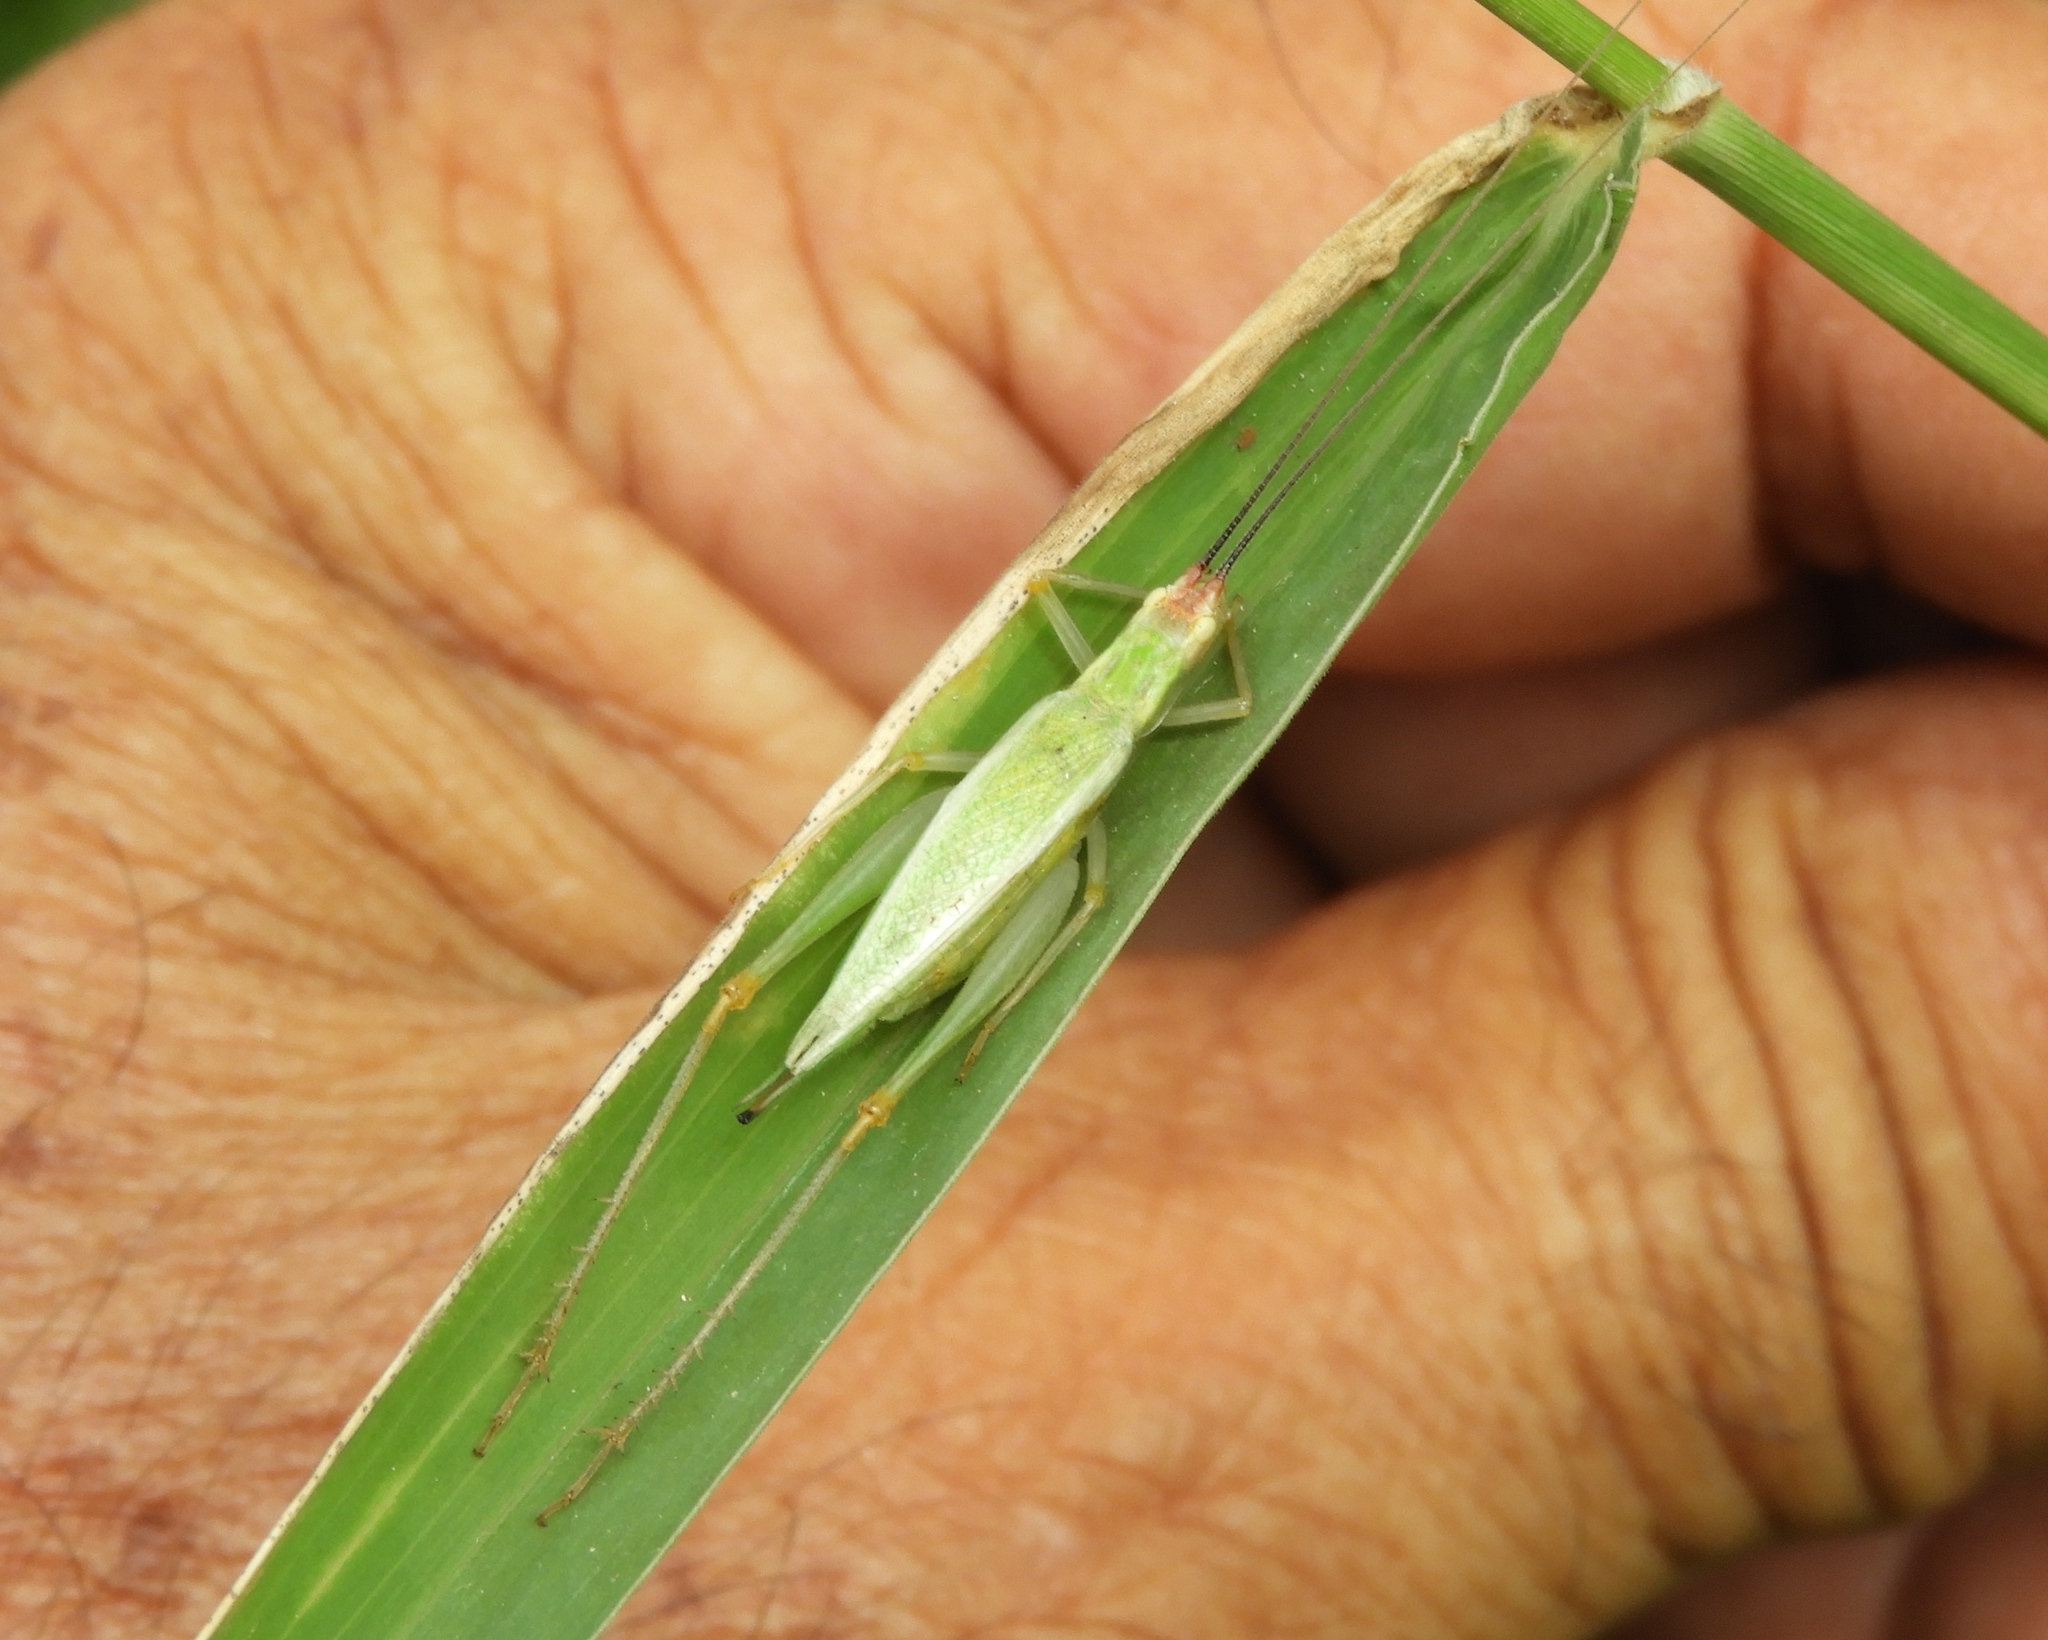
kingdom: Animalia
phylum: Arthropoda
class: Insecta
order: Orthoptera
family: Gryllidae
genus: Oecanthus
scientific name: Oecanthus
